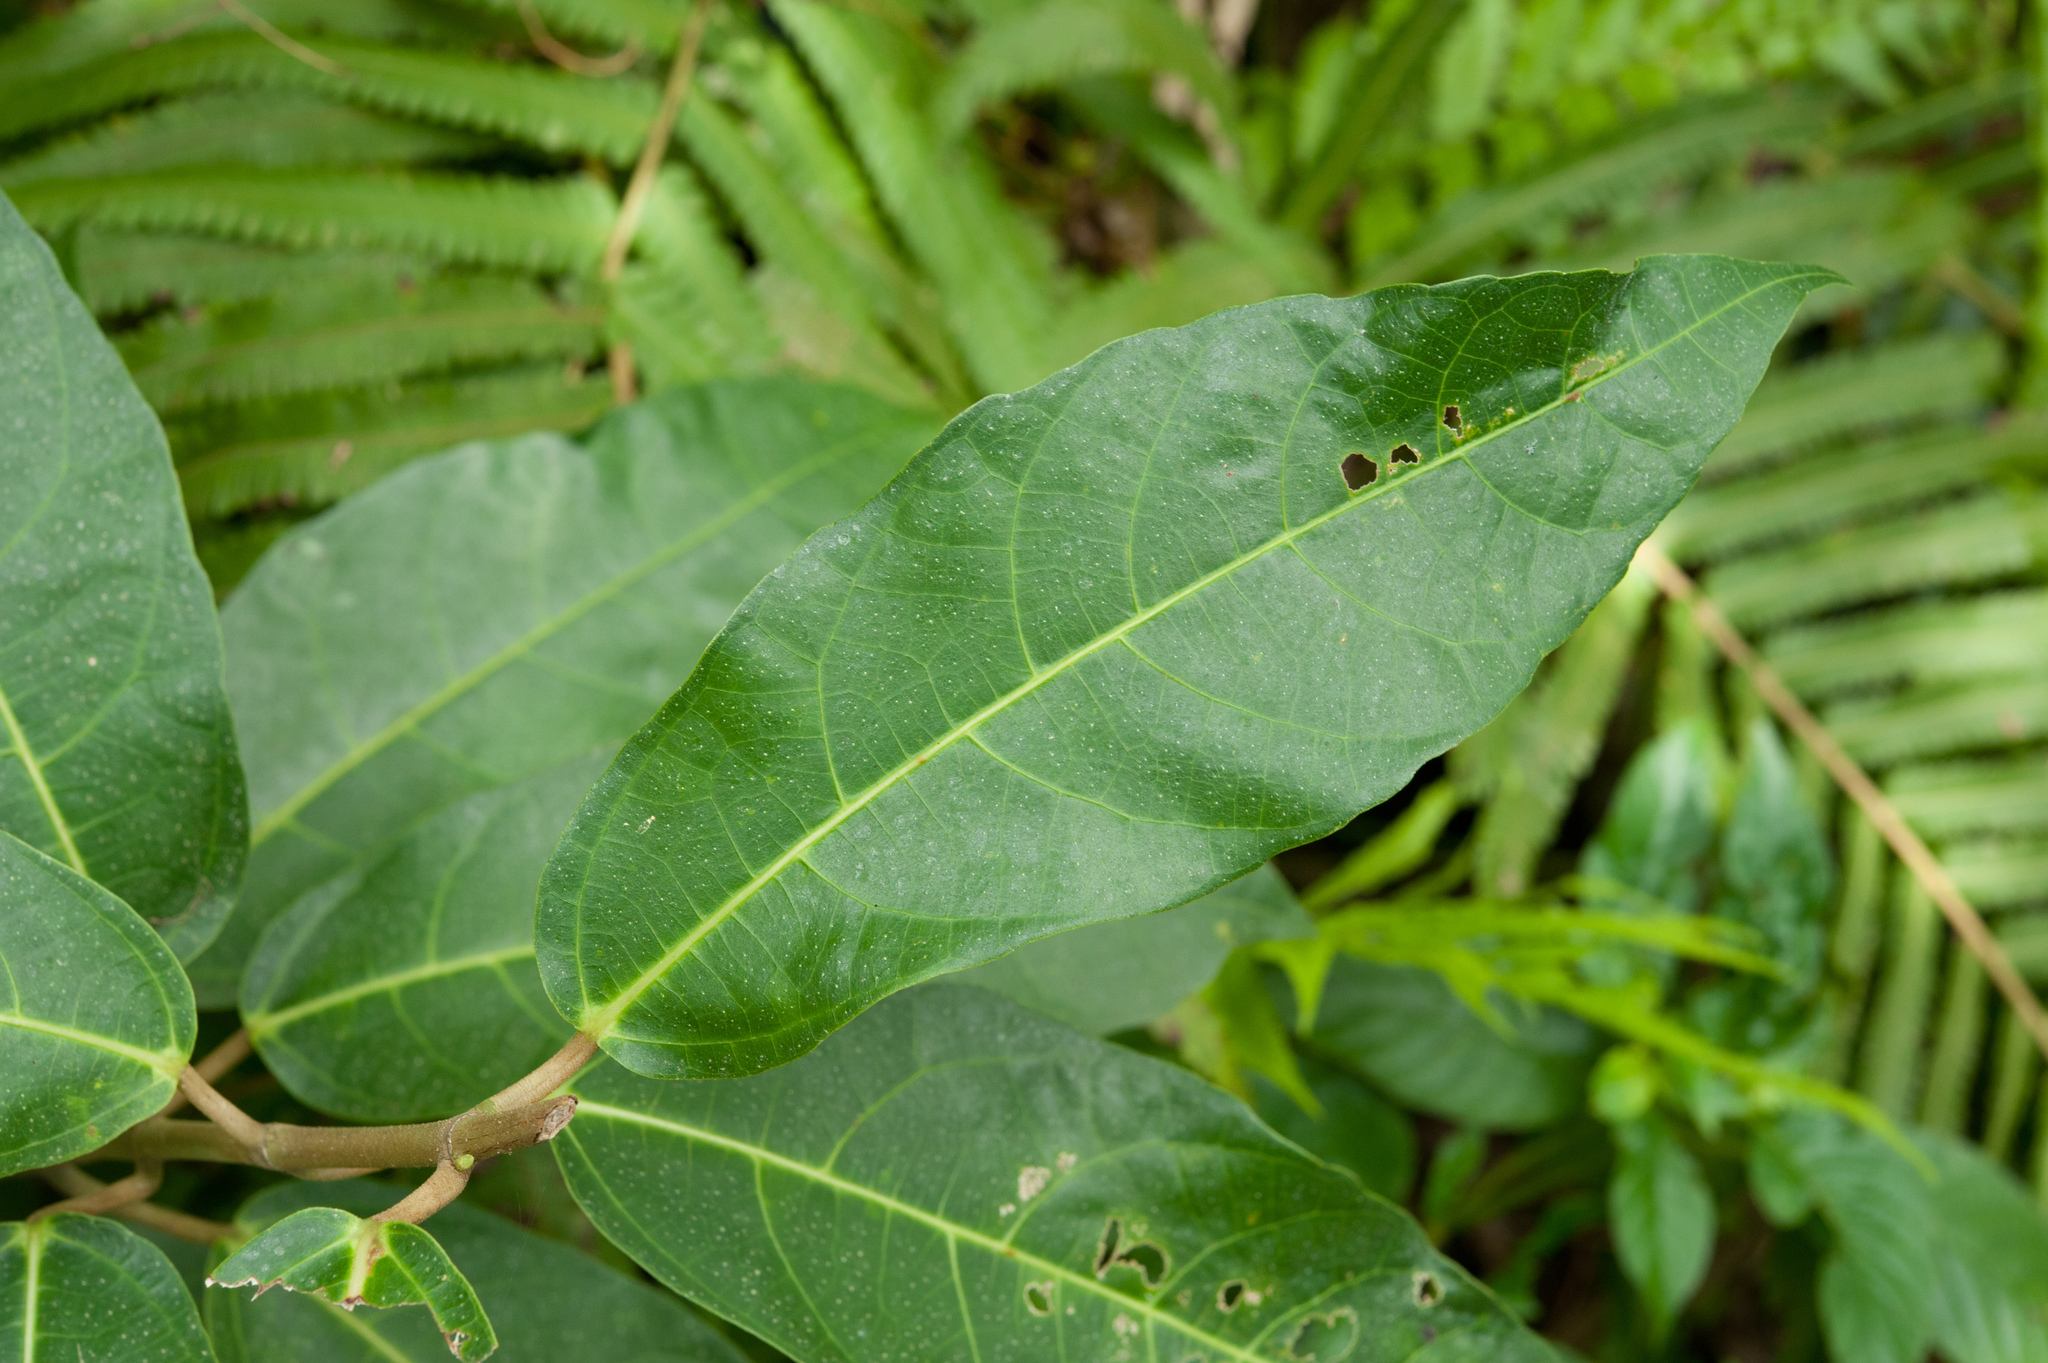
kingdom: Plantae
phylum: Tracheophyta
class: Magnoliopsida
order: Rosales
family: Moraceae
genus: Ficus
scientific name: Ficus cumingii
